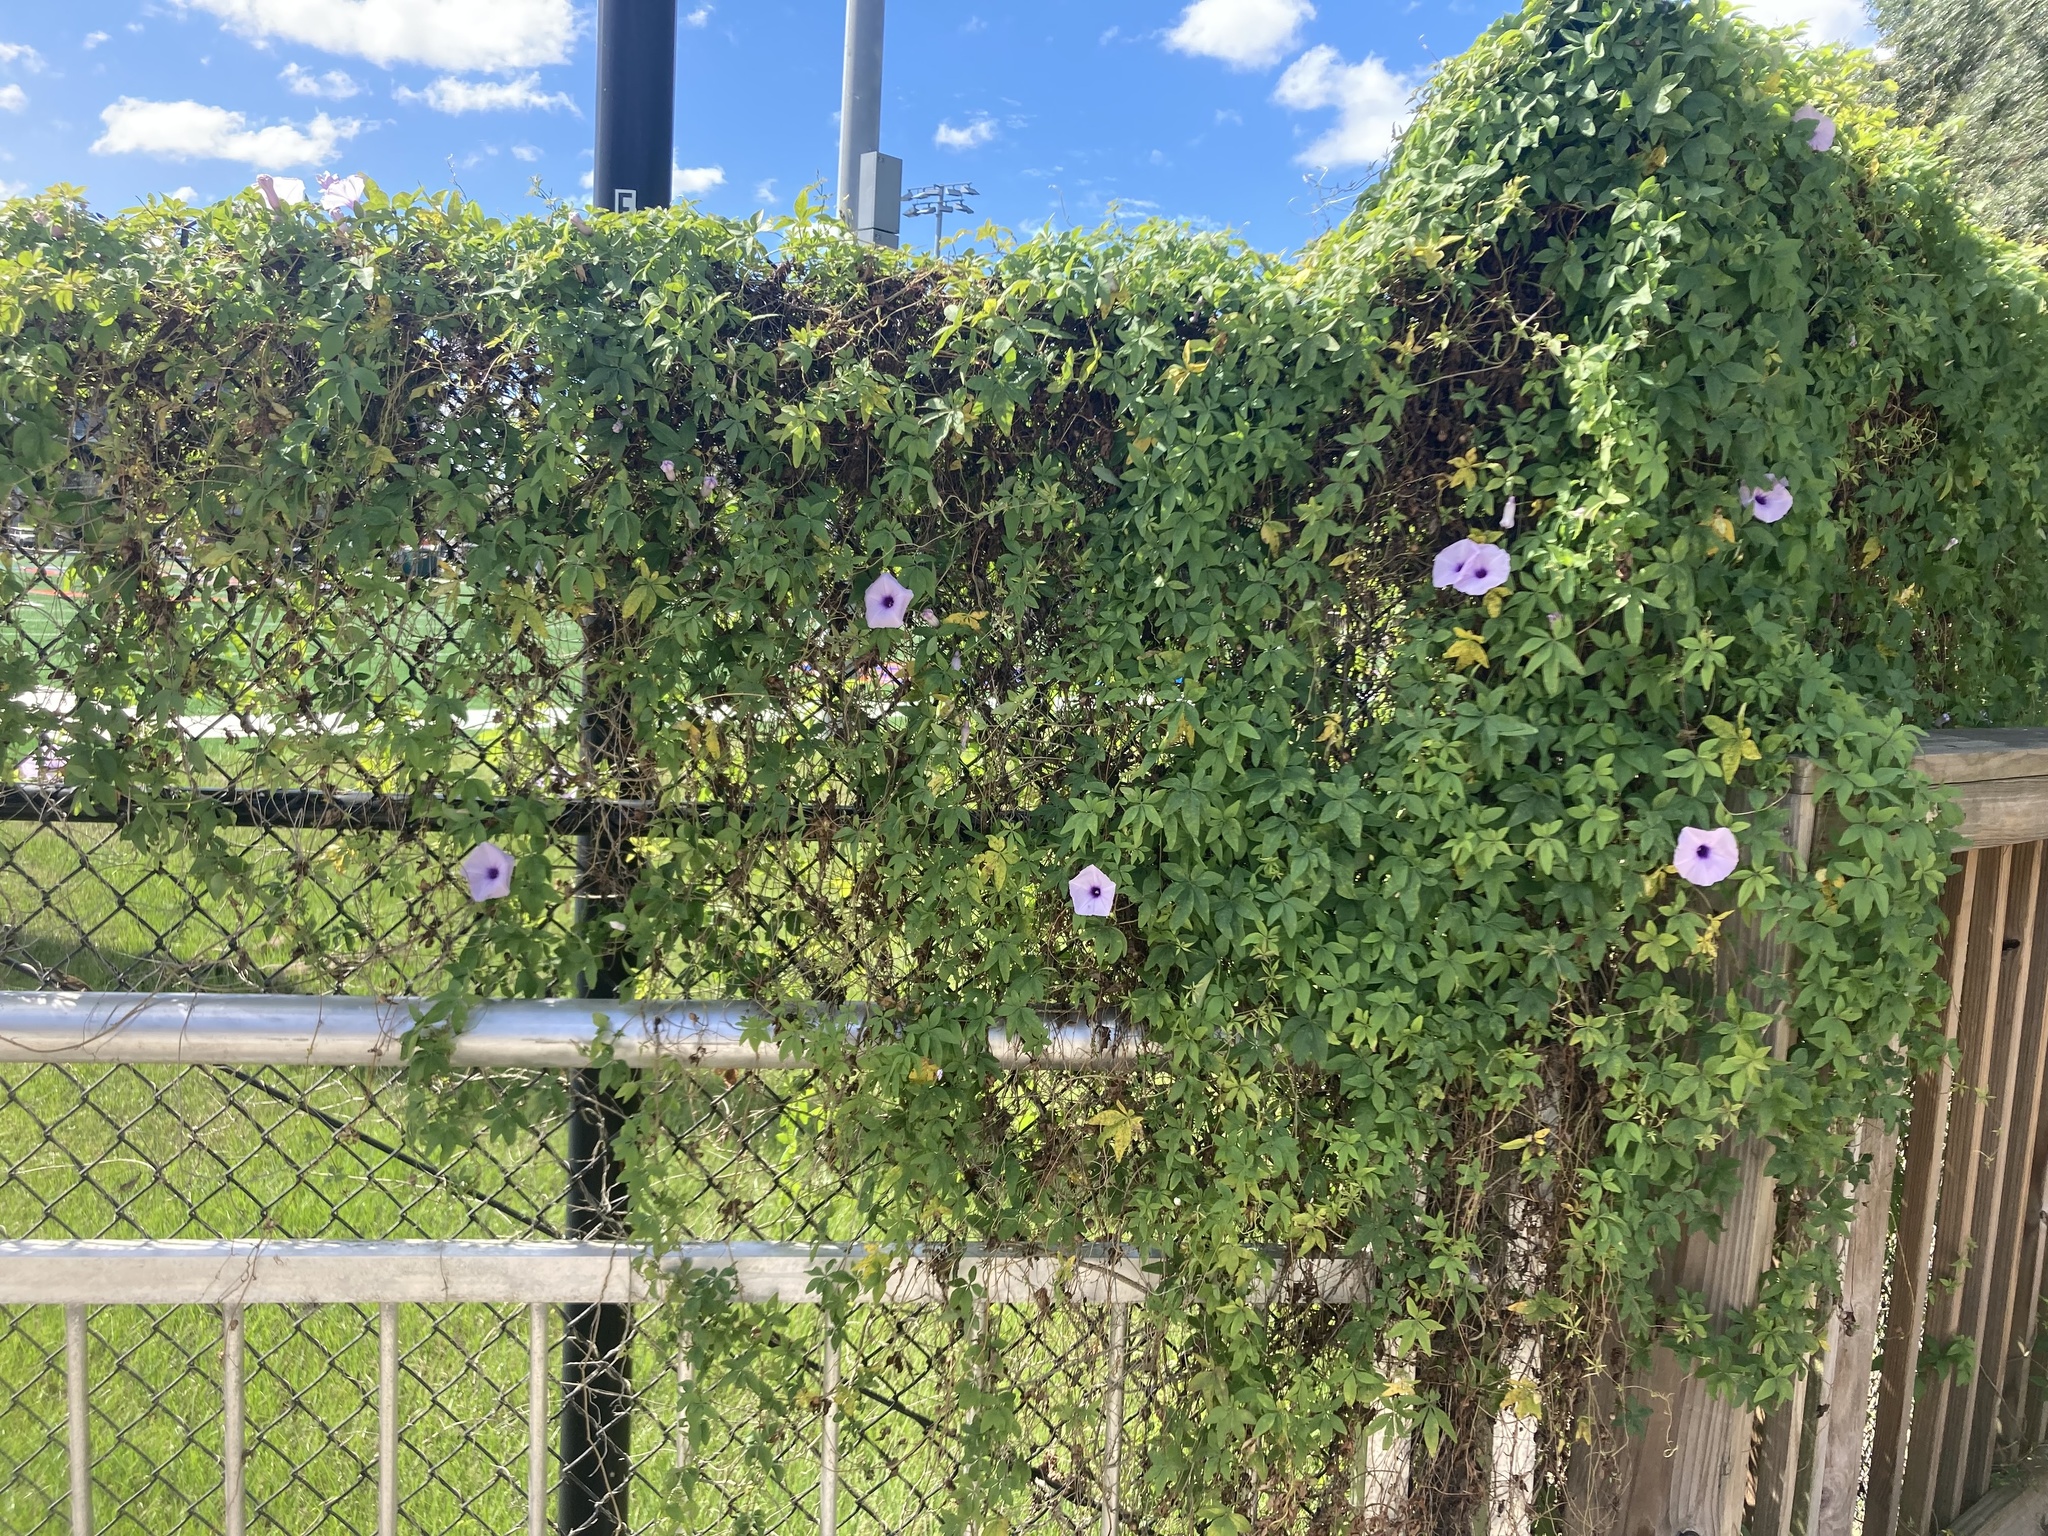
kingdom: Plantae
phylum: Tracheophyta
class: Magnoliopsida
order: Solanales
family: Convolvulaceae
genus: Ipomoea
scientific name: Ipomoea cairica
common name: Mile a minute vine
